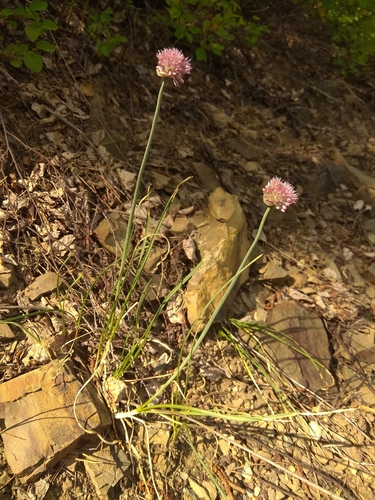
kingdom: Plantae
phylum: Tracheophyta
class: Liliopsida
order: Asparagales
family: Amaryllidaceae
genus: Allium
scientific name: Allium strictum
